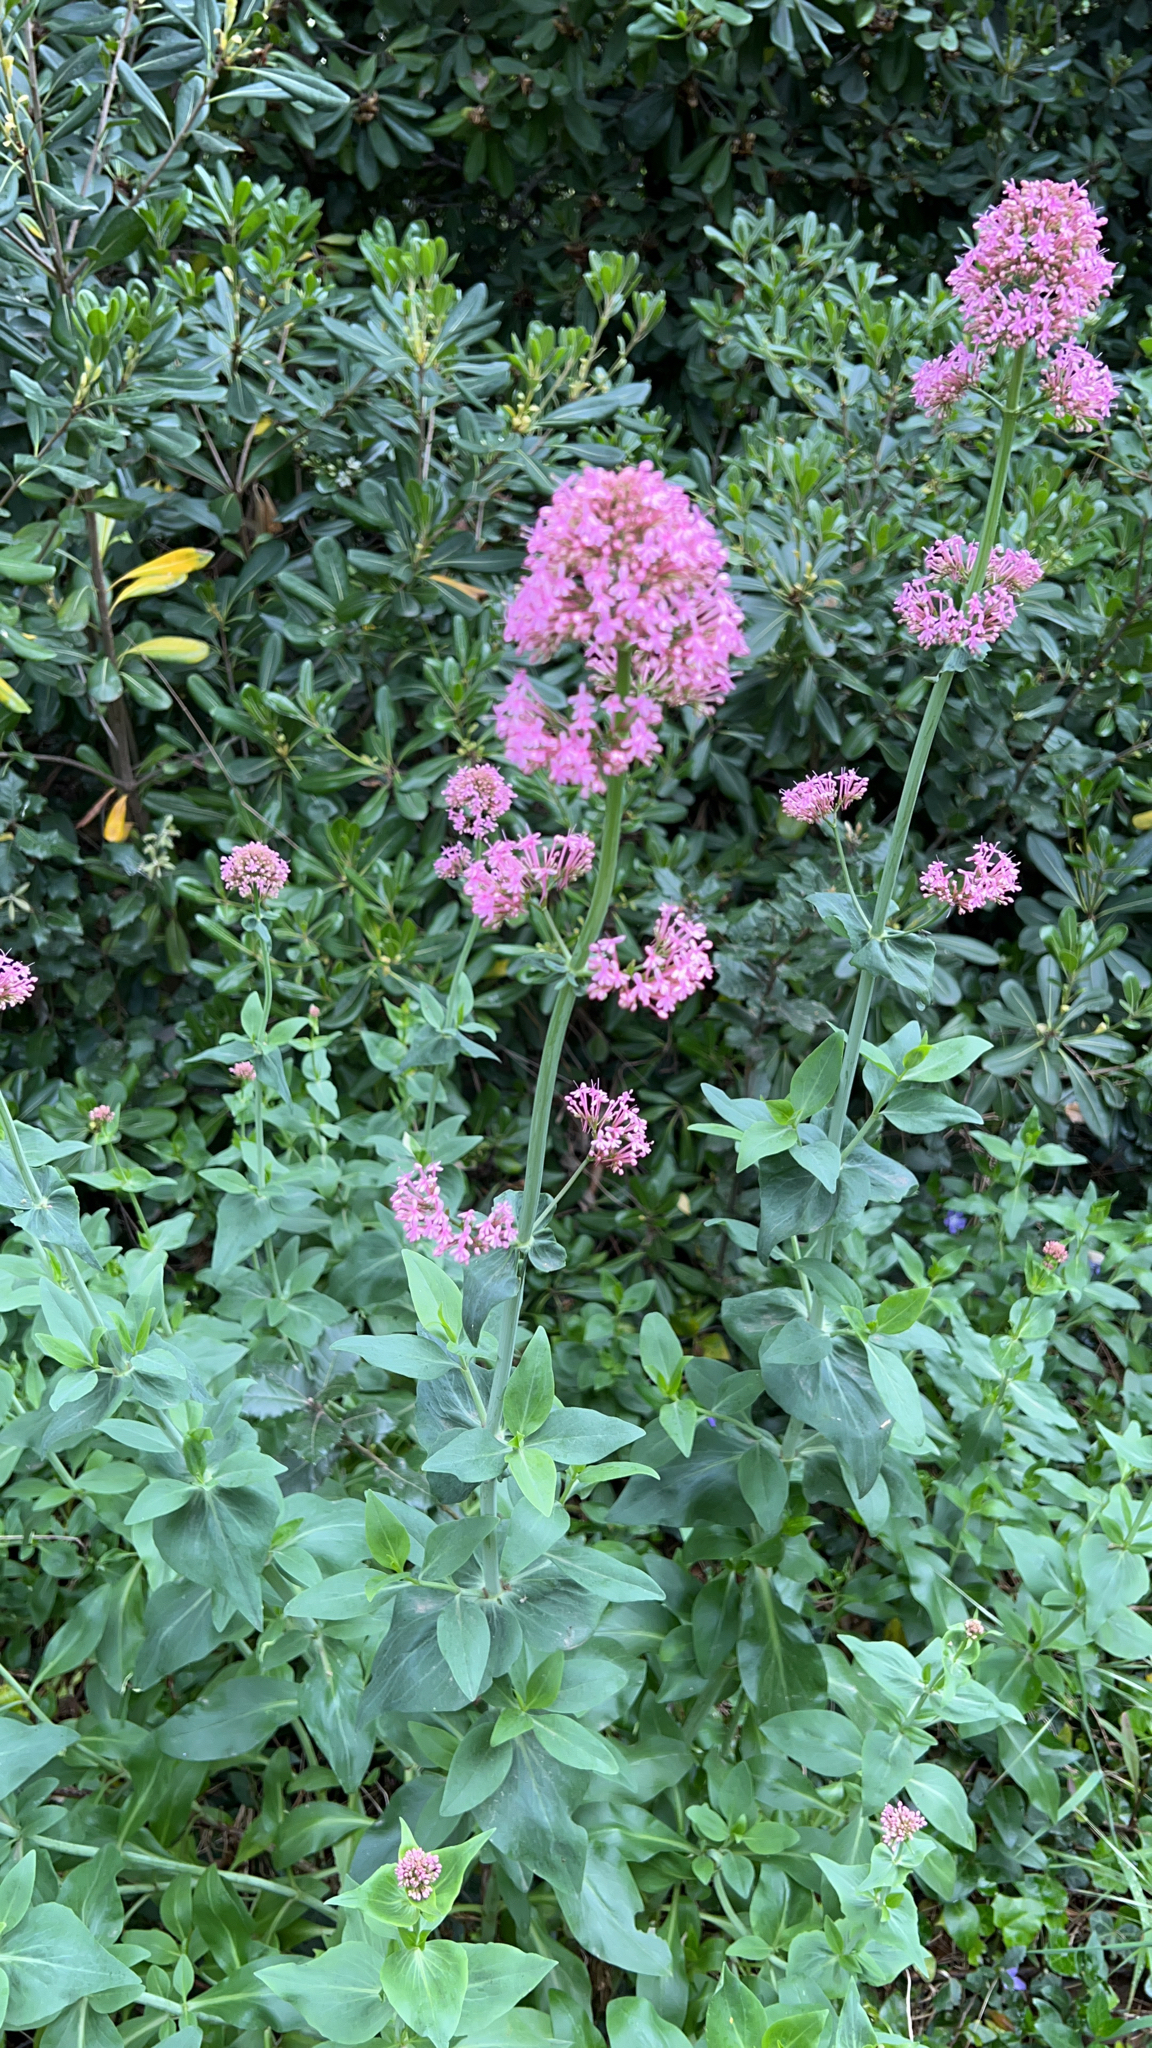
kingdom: Plantae
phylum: Tracheophyta
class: Magnoliopsida
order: Dipsacales
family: Caprifoliaceae
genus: Centranthus
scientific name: Centranthus ruber
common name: Red valerian
